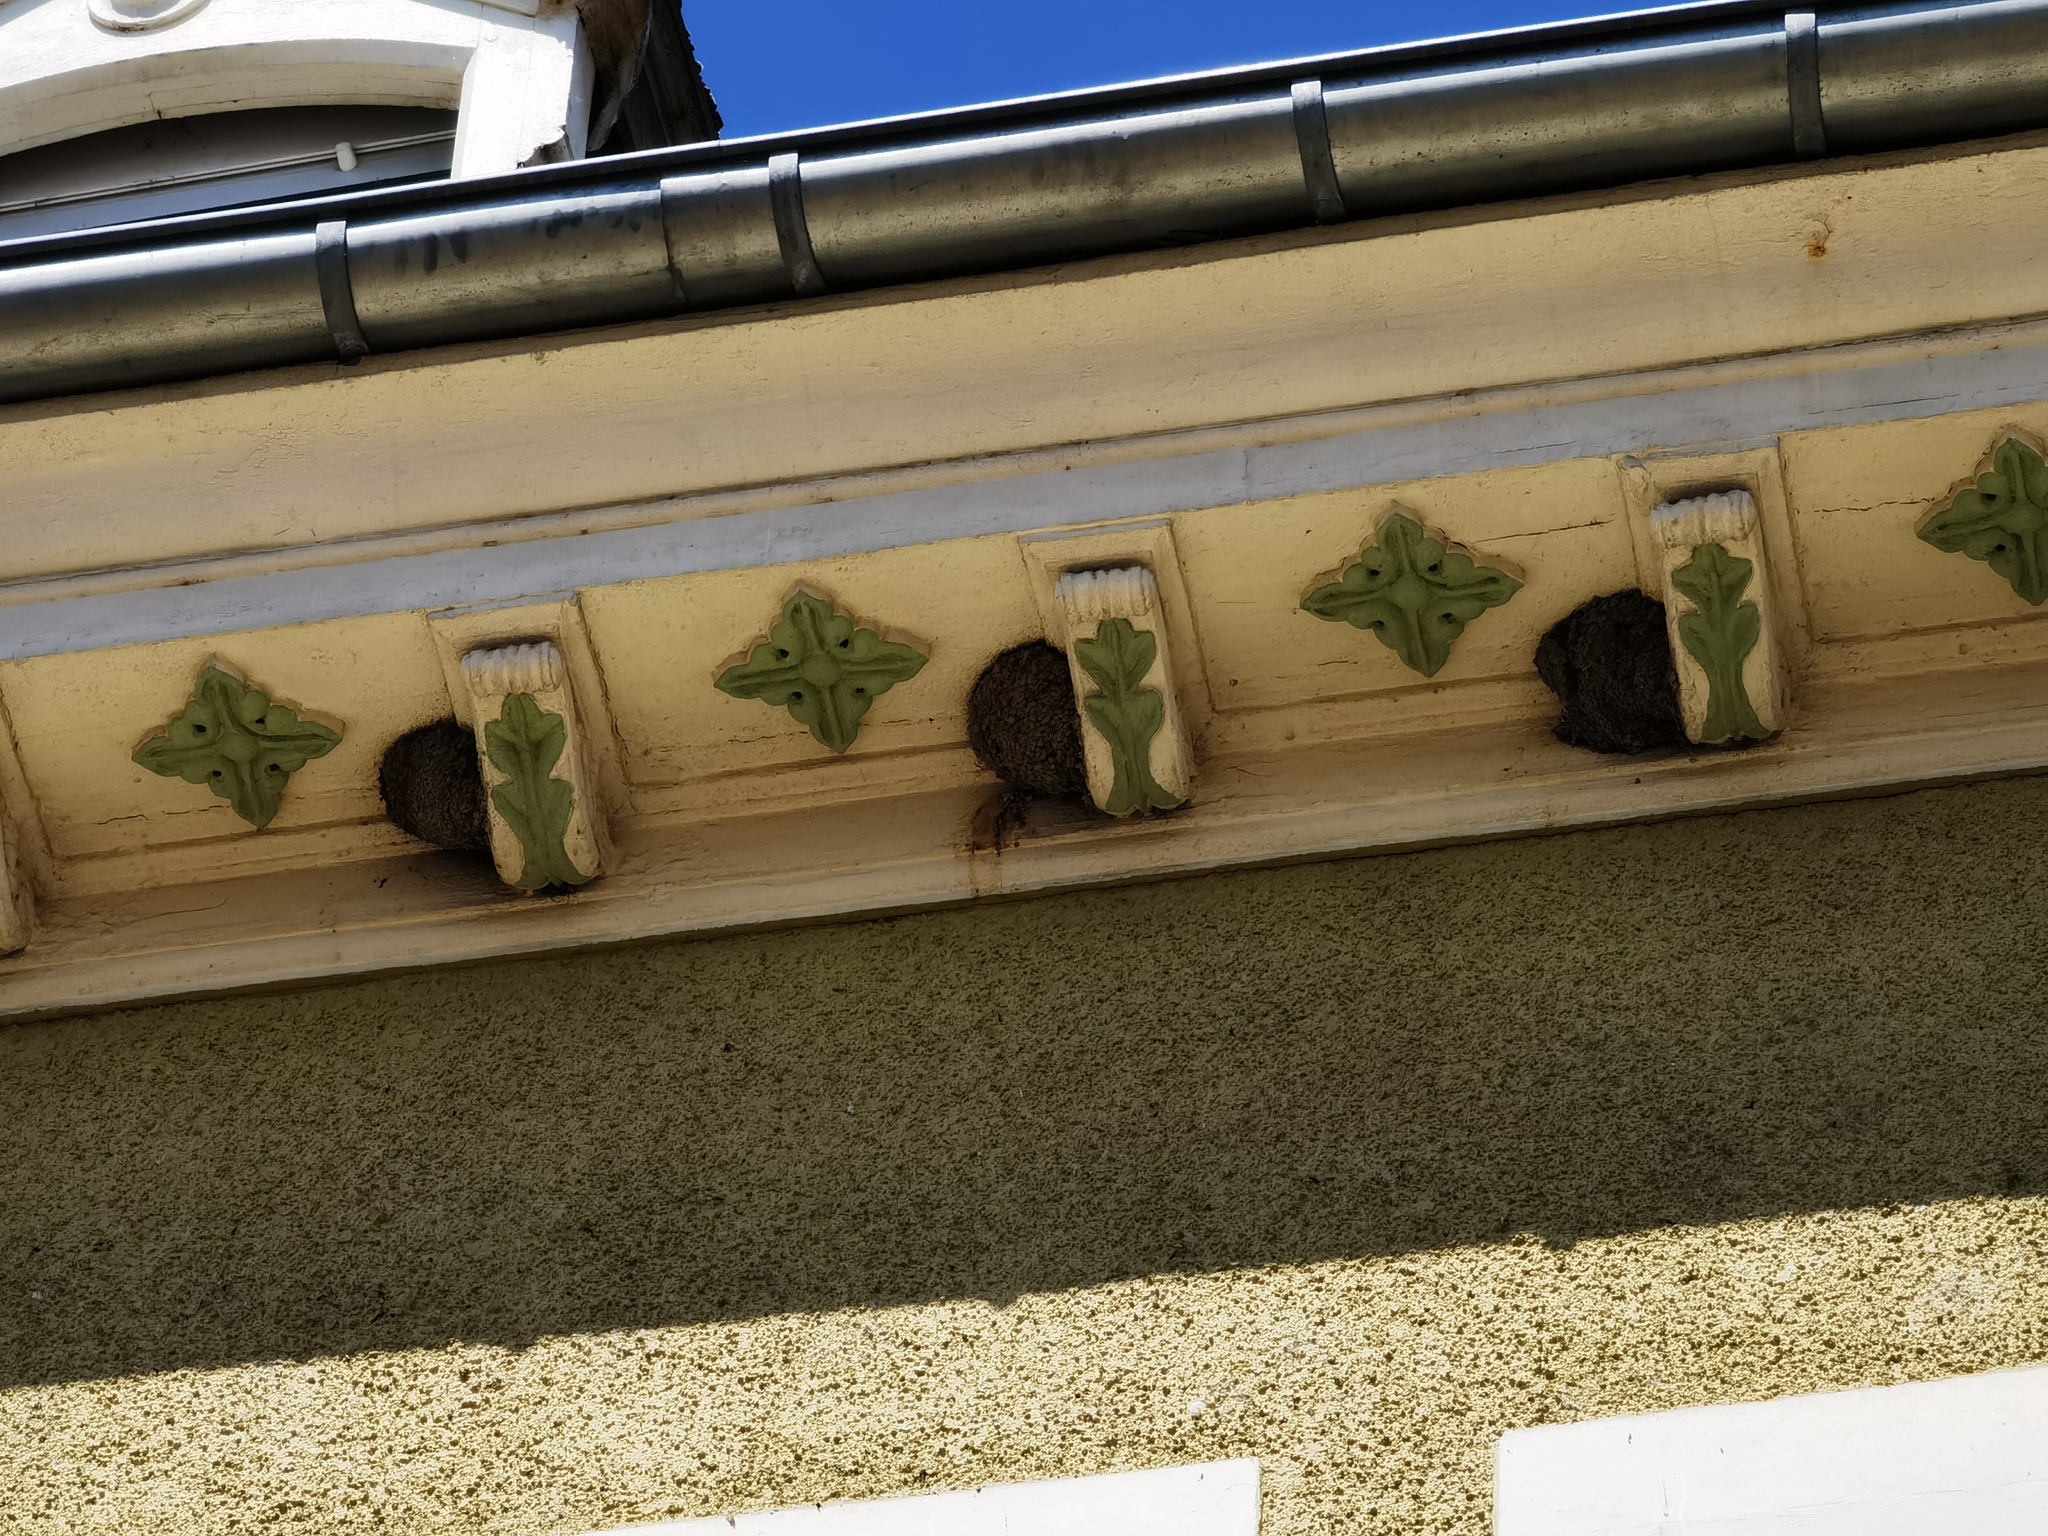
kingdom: Animalia
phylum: Chordata
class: Aves
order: Passeriformes
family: Hirundinidae
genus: Delichon
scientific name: Delichon urbicum
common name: Common house martin
